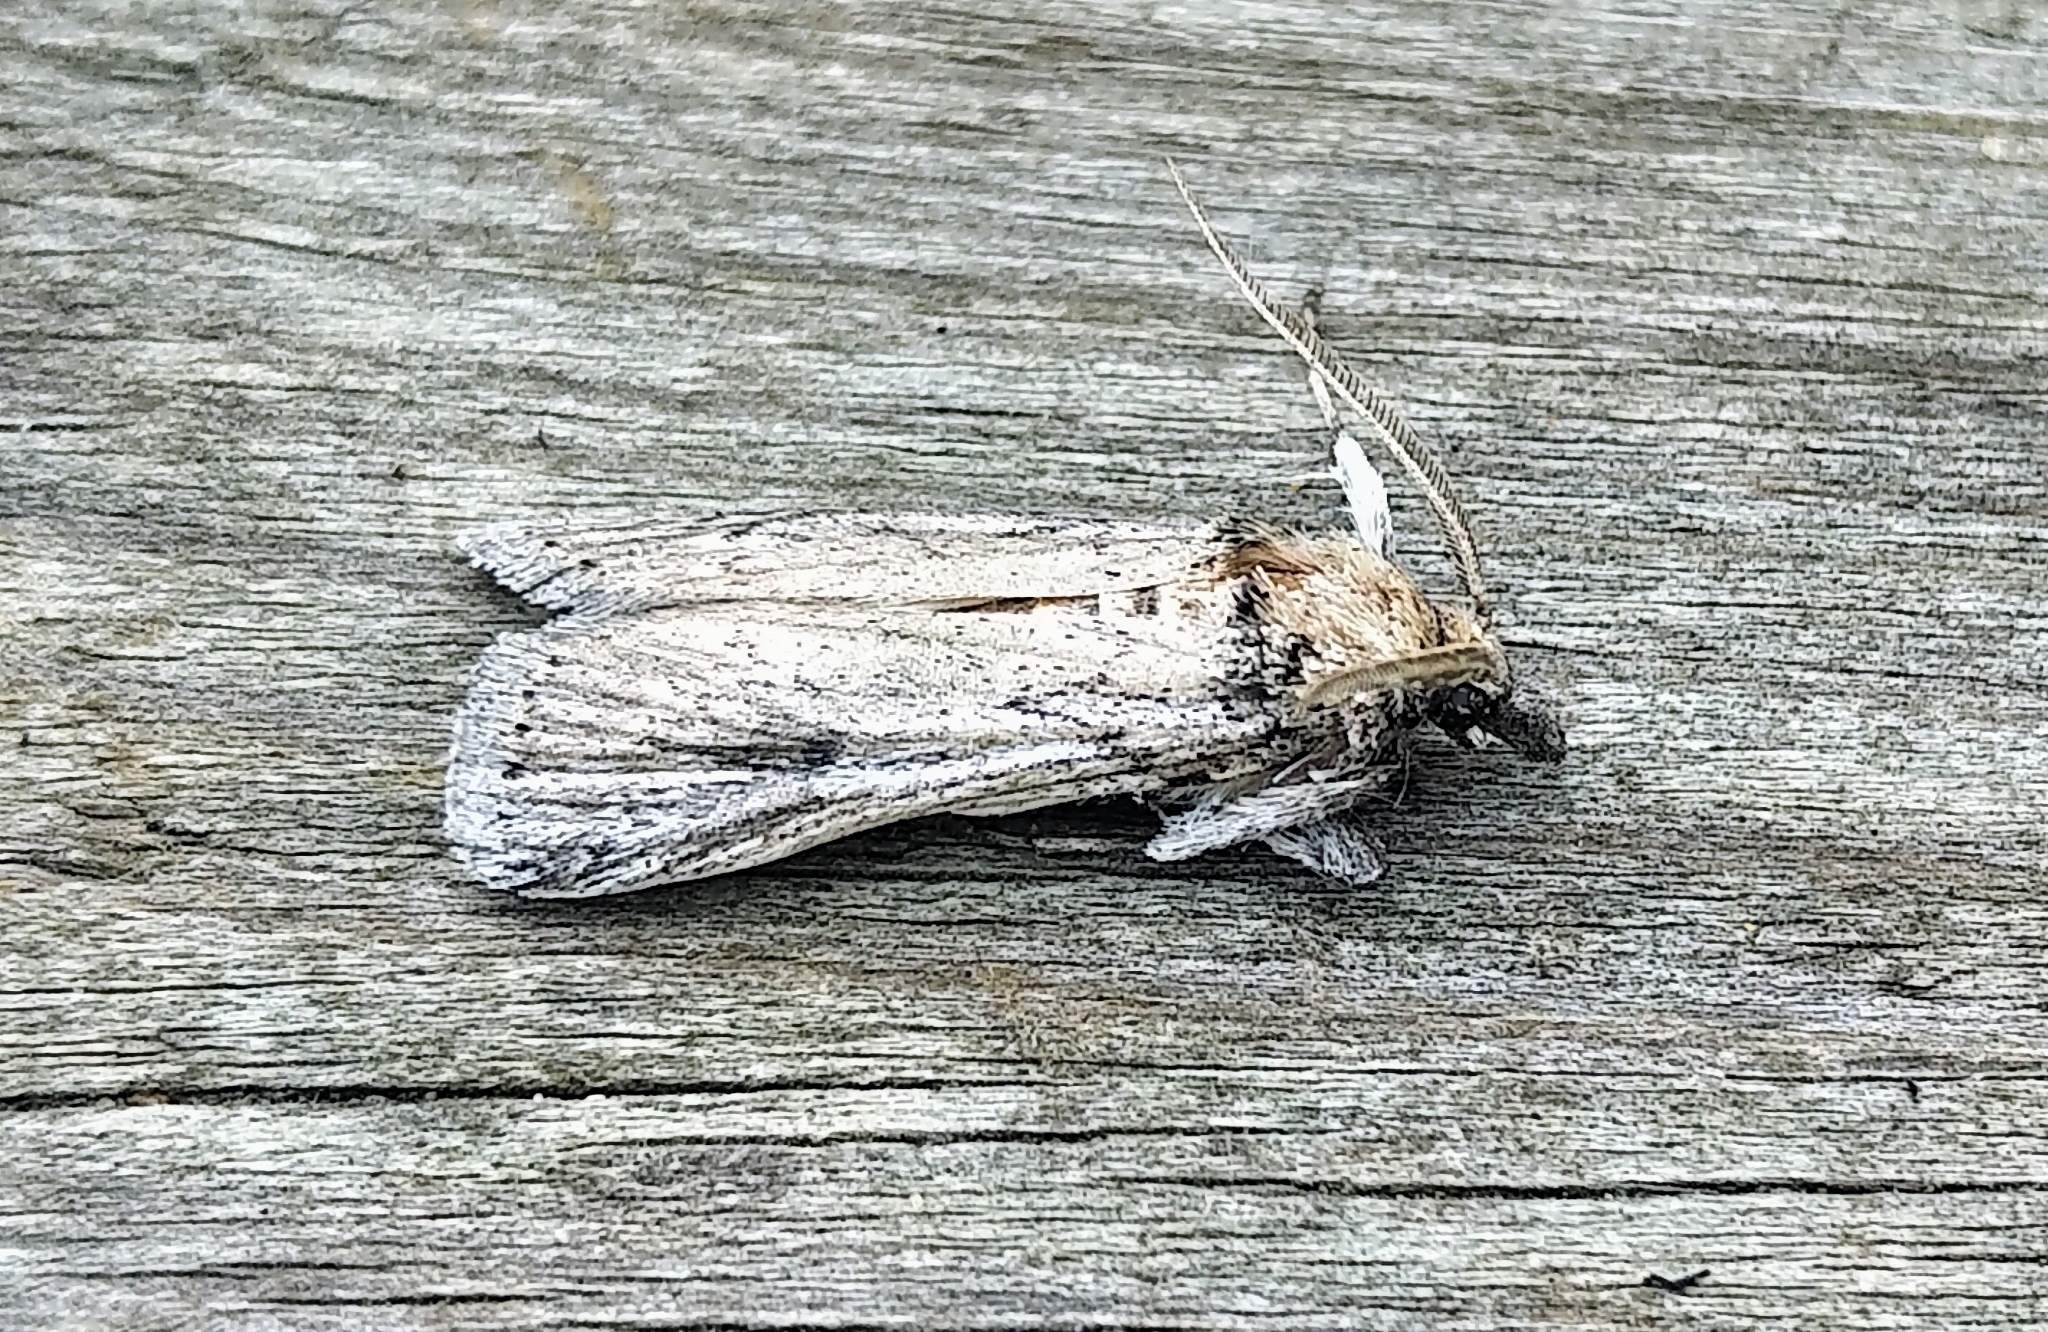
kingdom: Animalia
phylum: Arthropoda
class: Insecta
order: Lepidoptera
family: Pyralidae
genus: Melitara
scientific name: Melitara dentata
